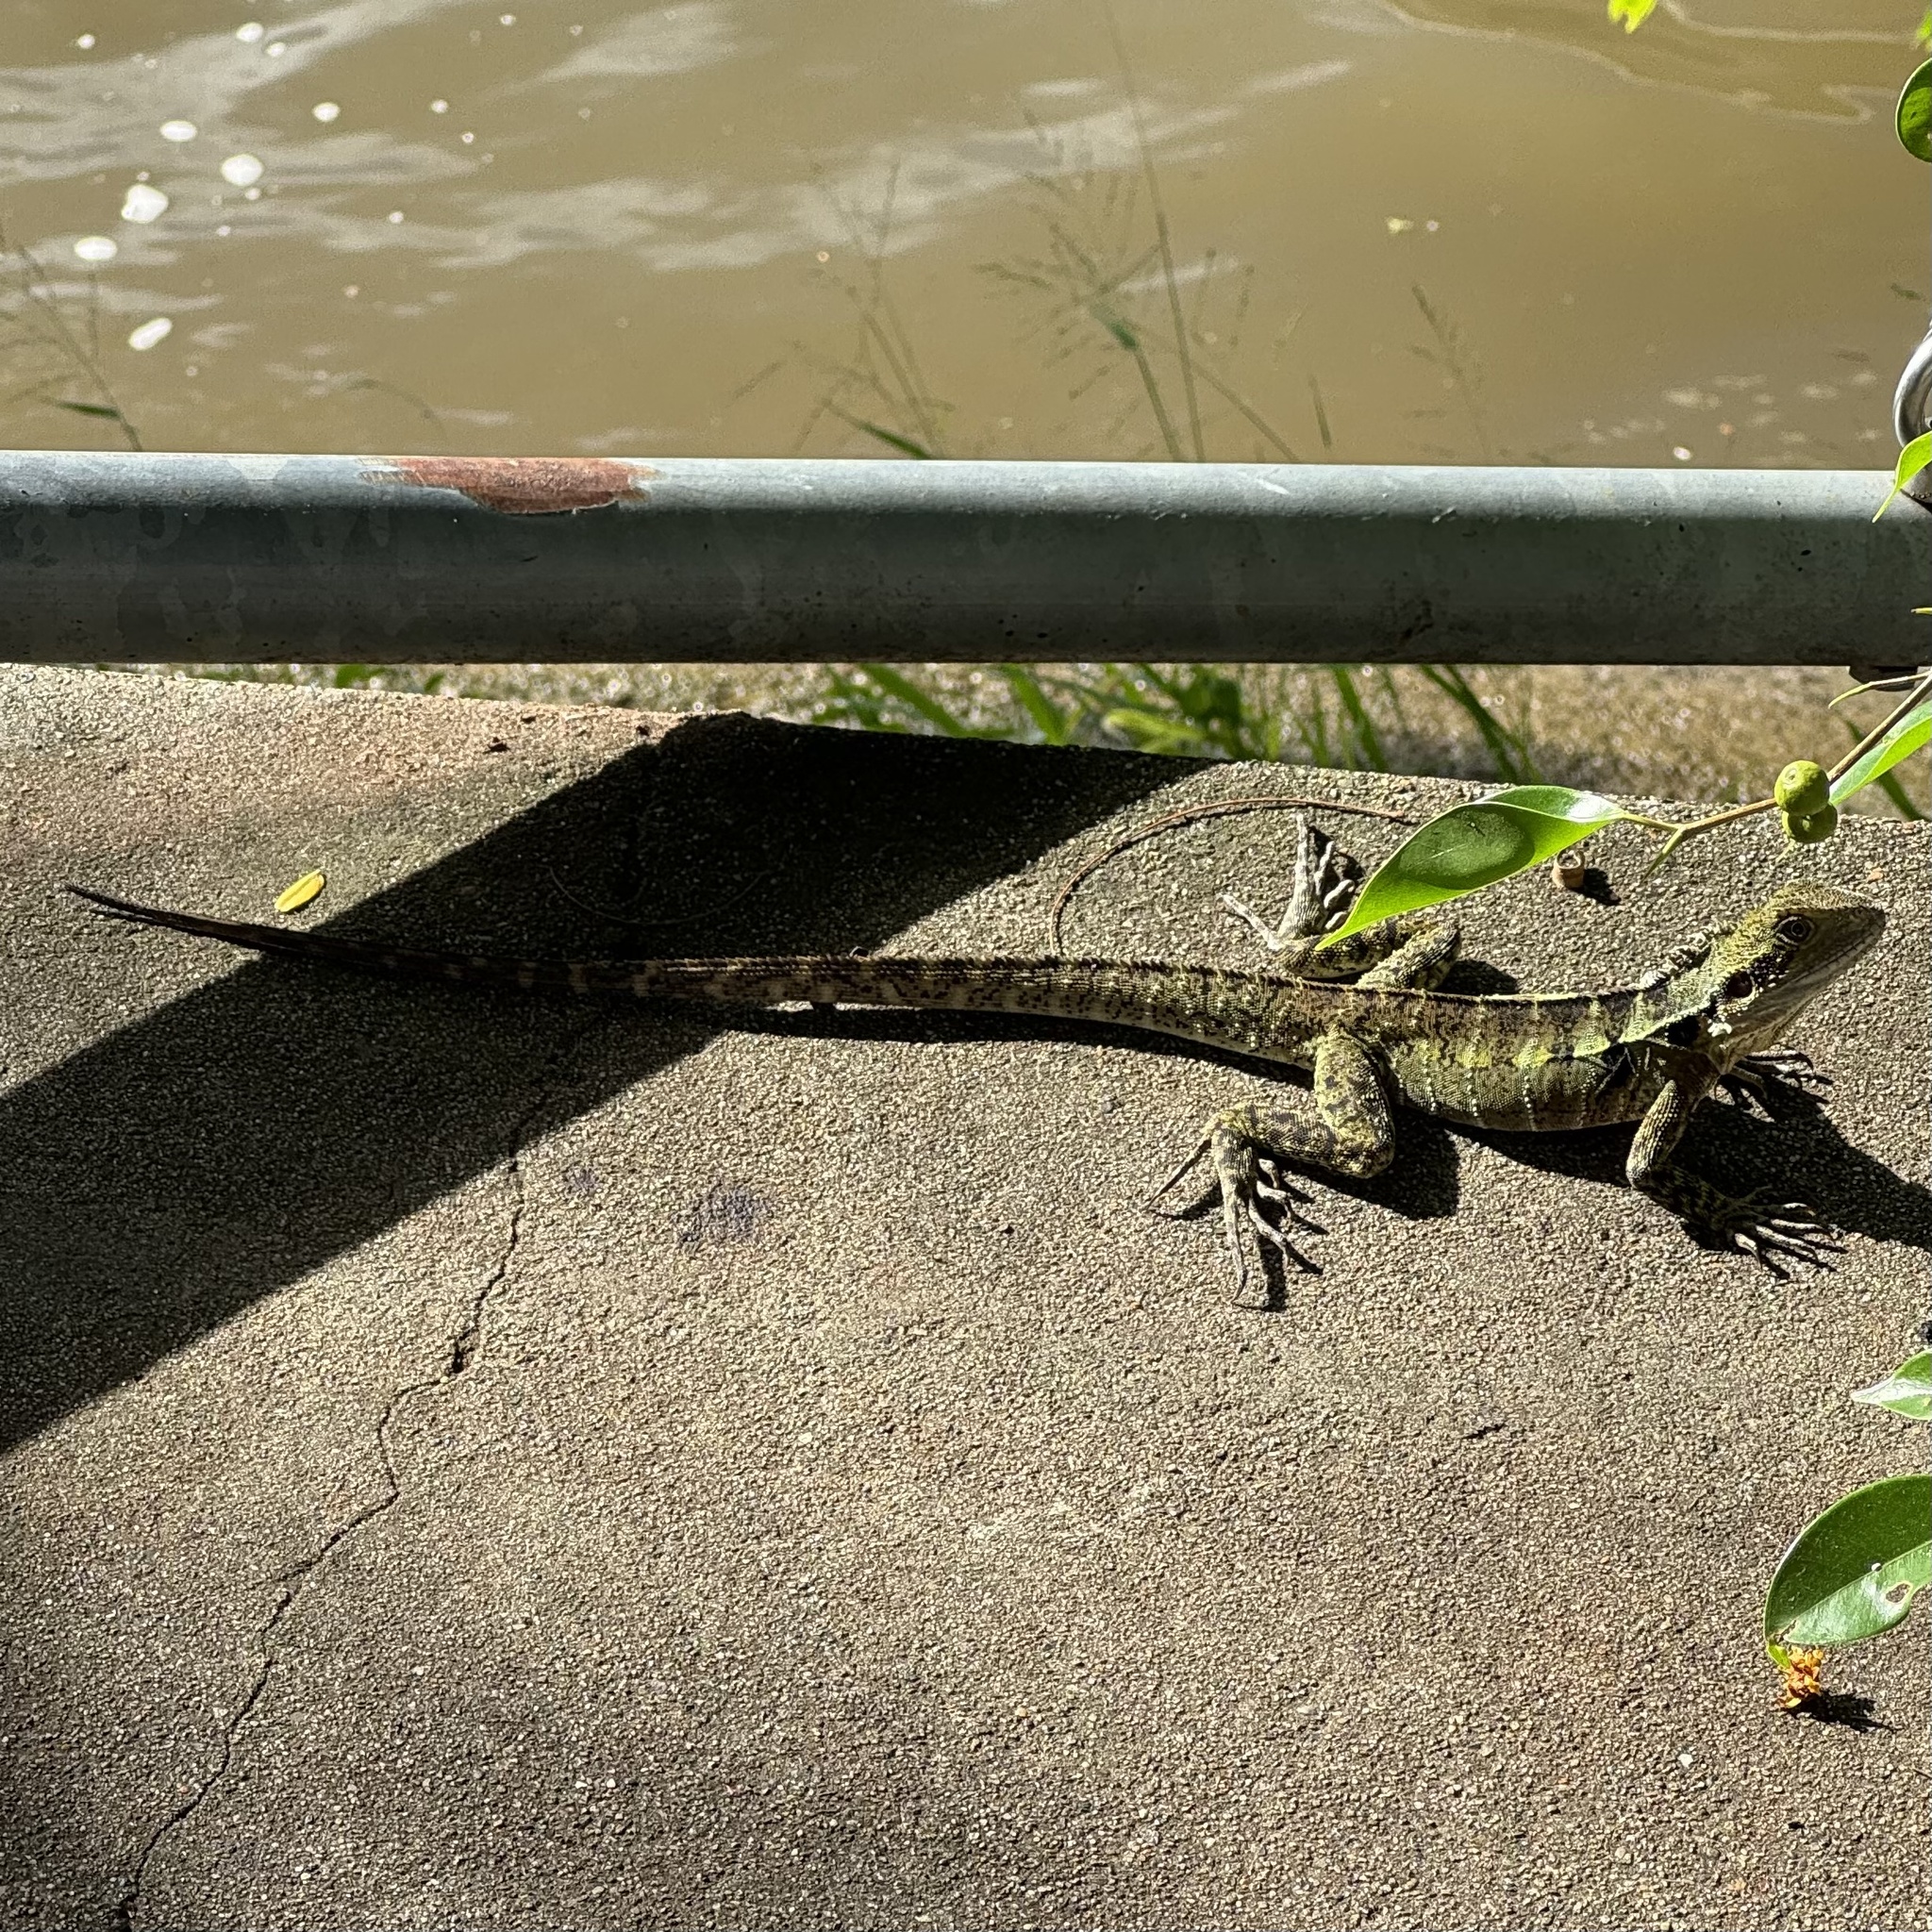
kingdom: Animalia
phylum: Chordata
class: Squamata
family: Agamidae
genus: Intellagama
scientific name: Intellagama lesueurii
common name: Eastern water dragon
